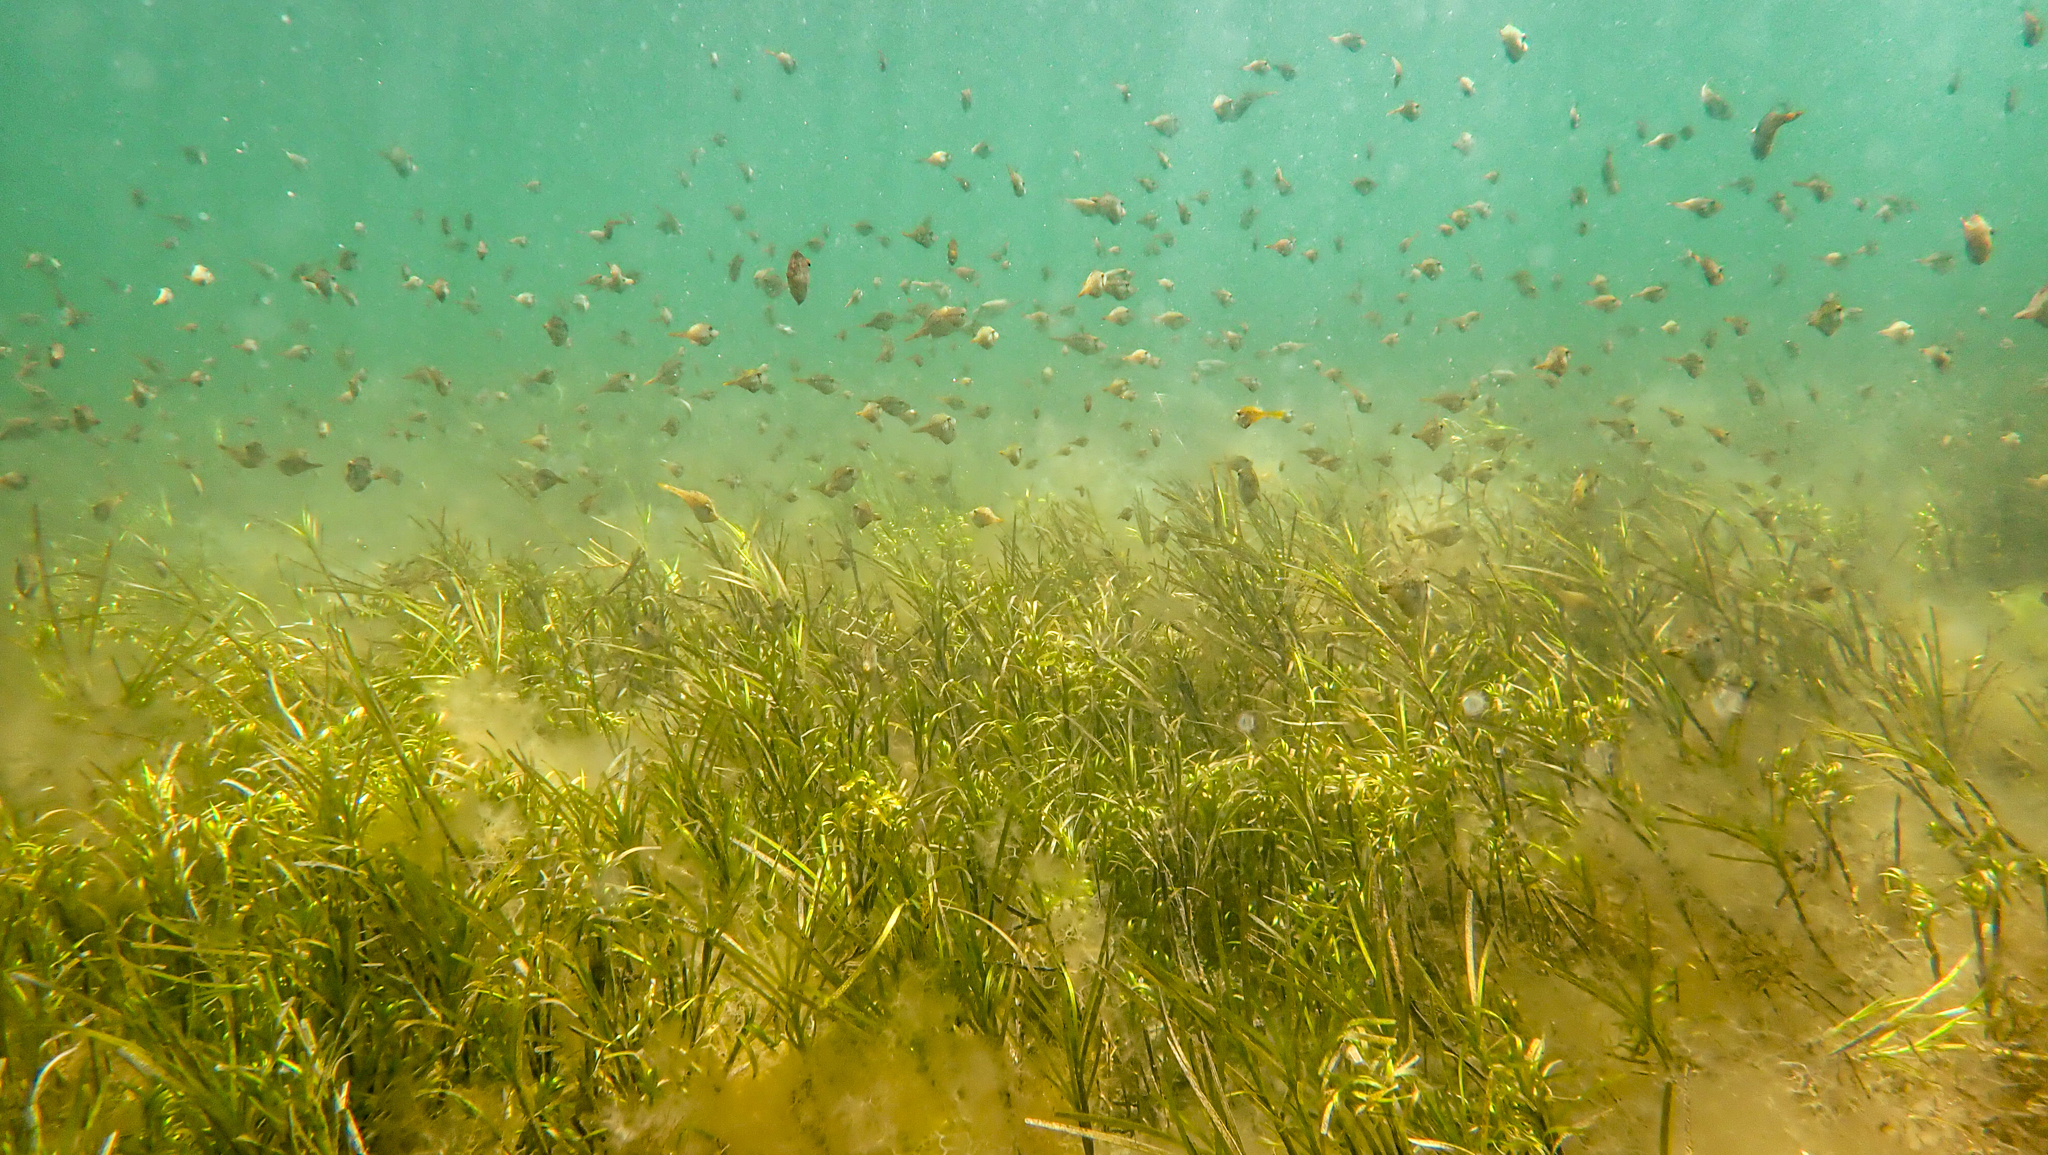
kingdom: Animalia
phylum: Chordata
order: Tetraodontiformes
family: Monacanthidae
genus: Acanthaluteres
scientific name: Acanthaluteres spilomelanurus
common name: Bridled leatherjacket
